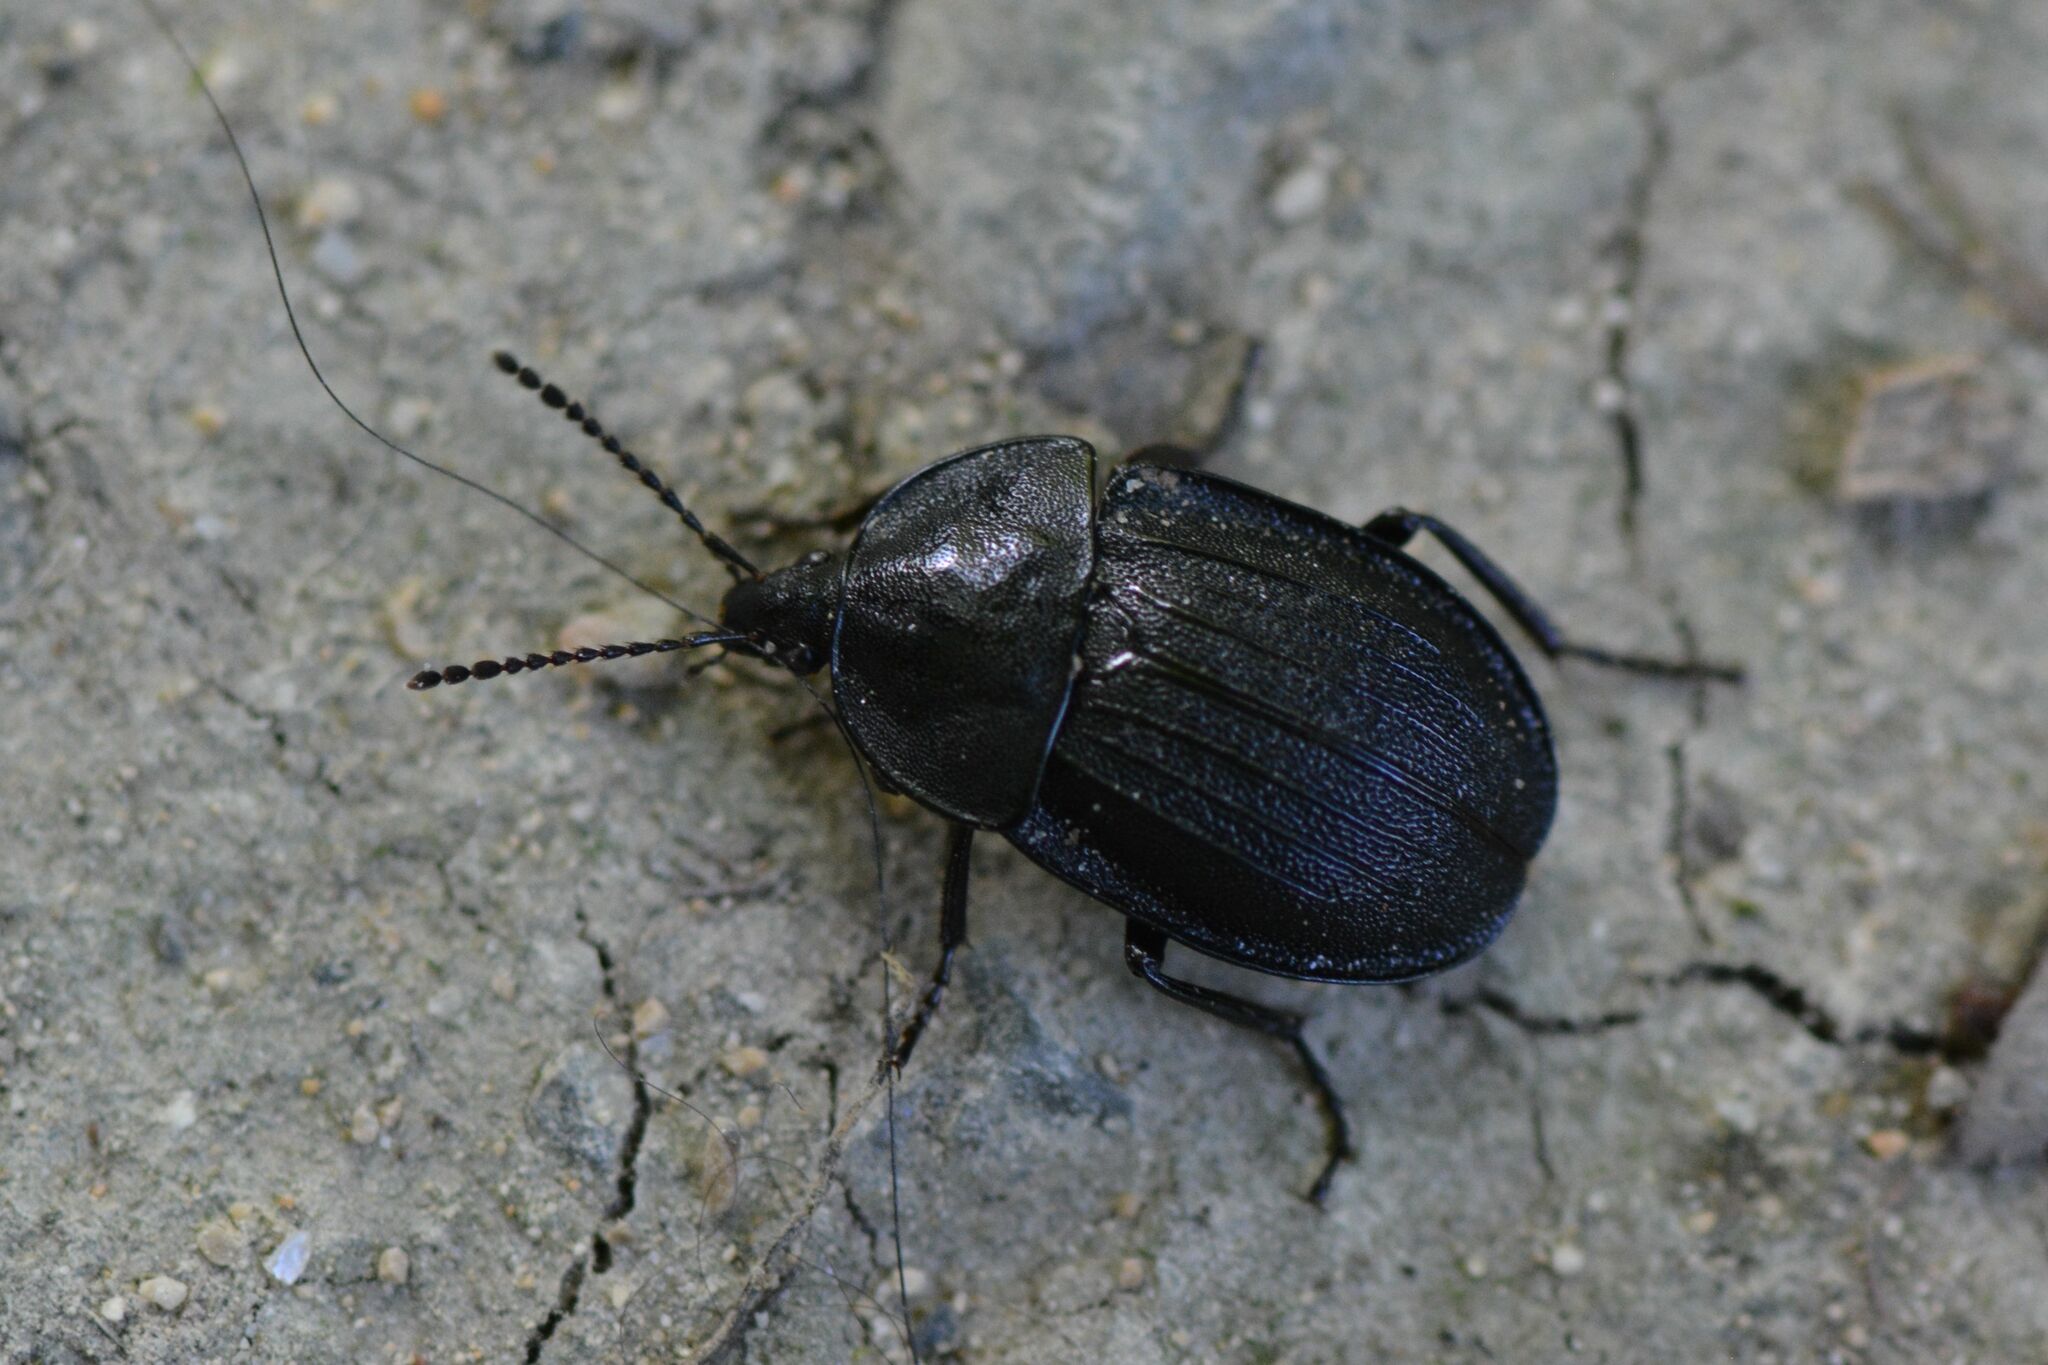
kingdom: Animalia
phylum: Arthropoda
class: Insecta
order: Coleoptera
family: Staphylinidae
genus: Silpha
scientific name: Silpha atrata
